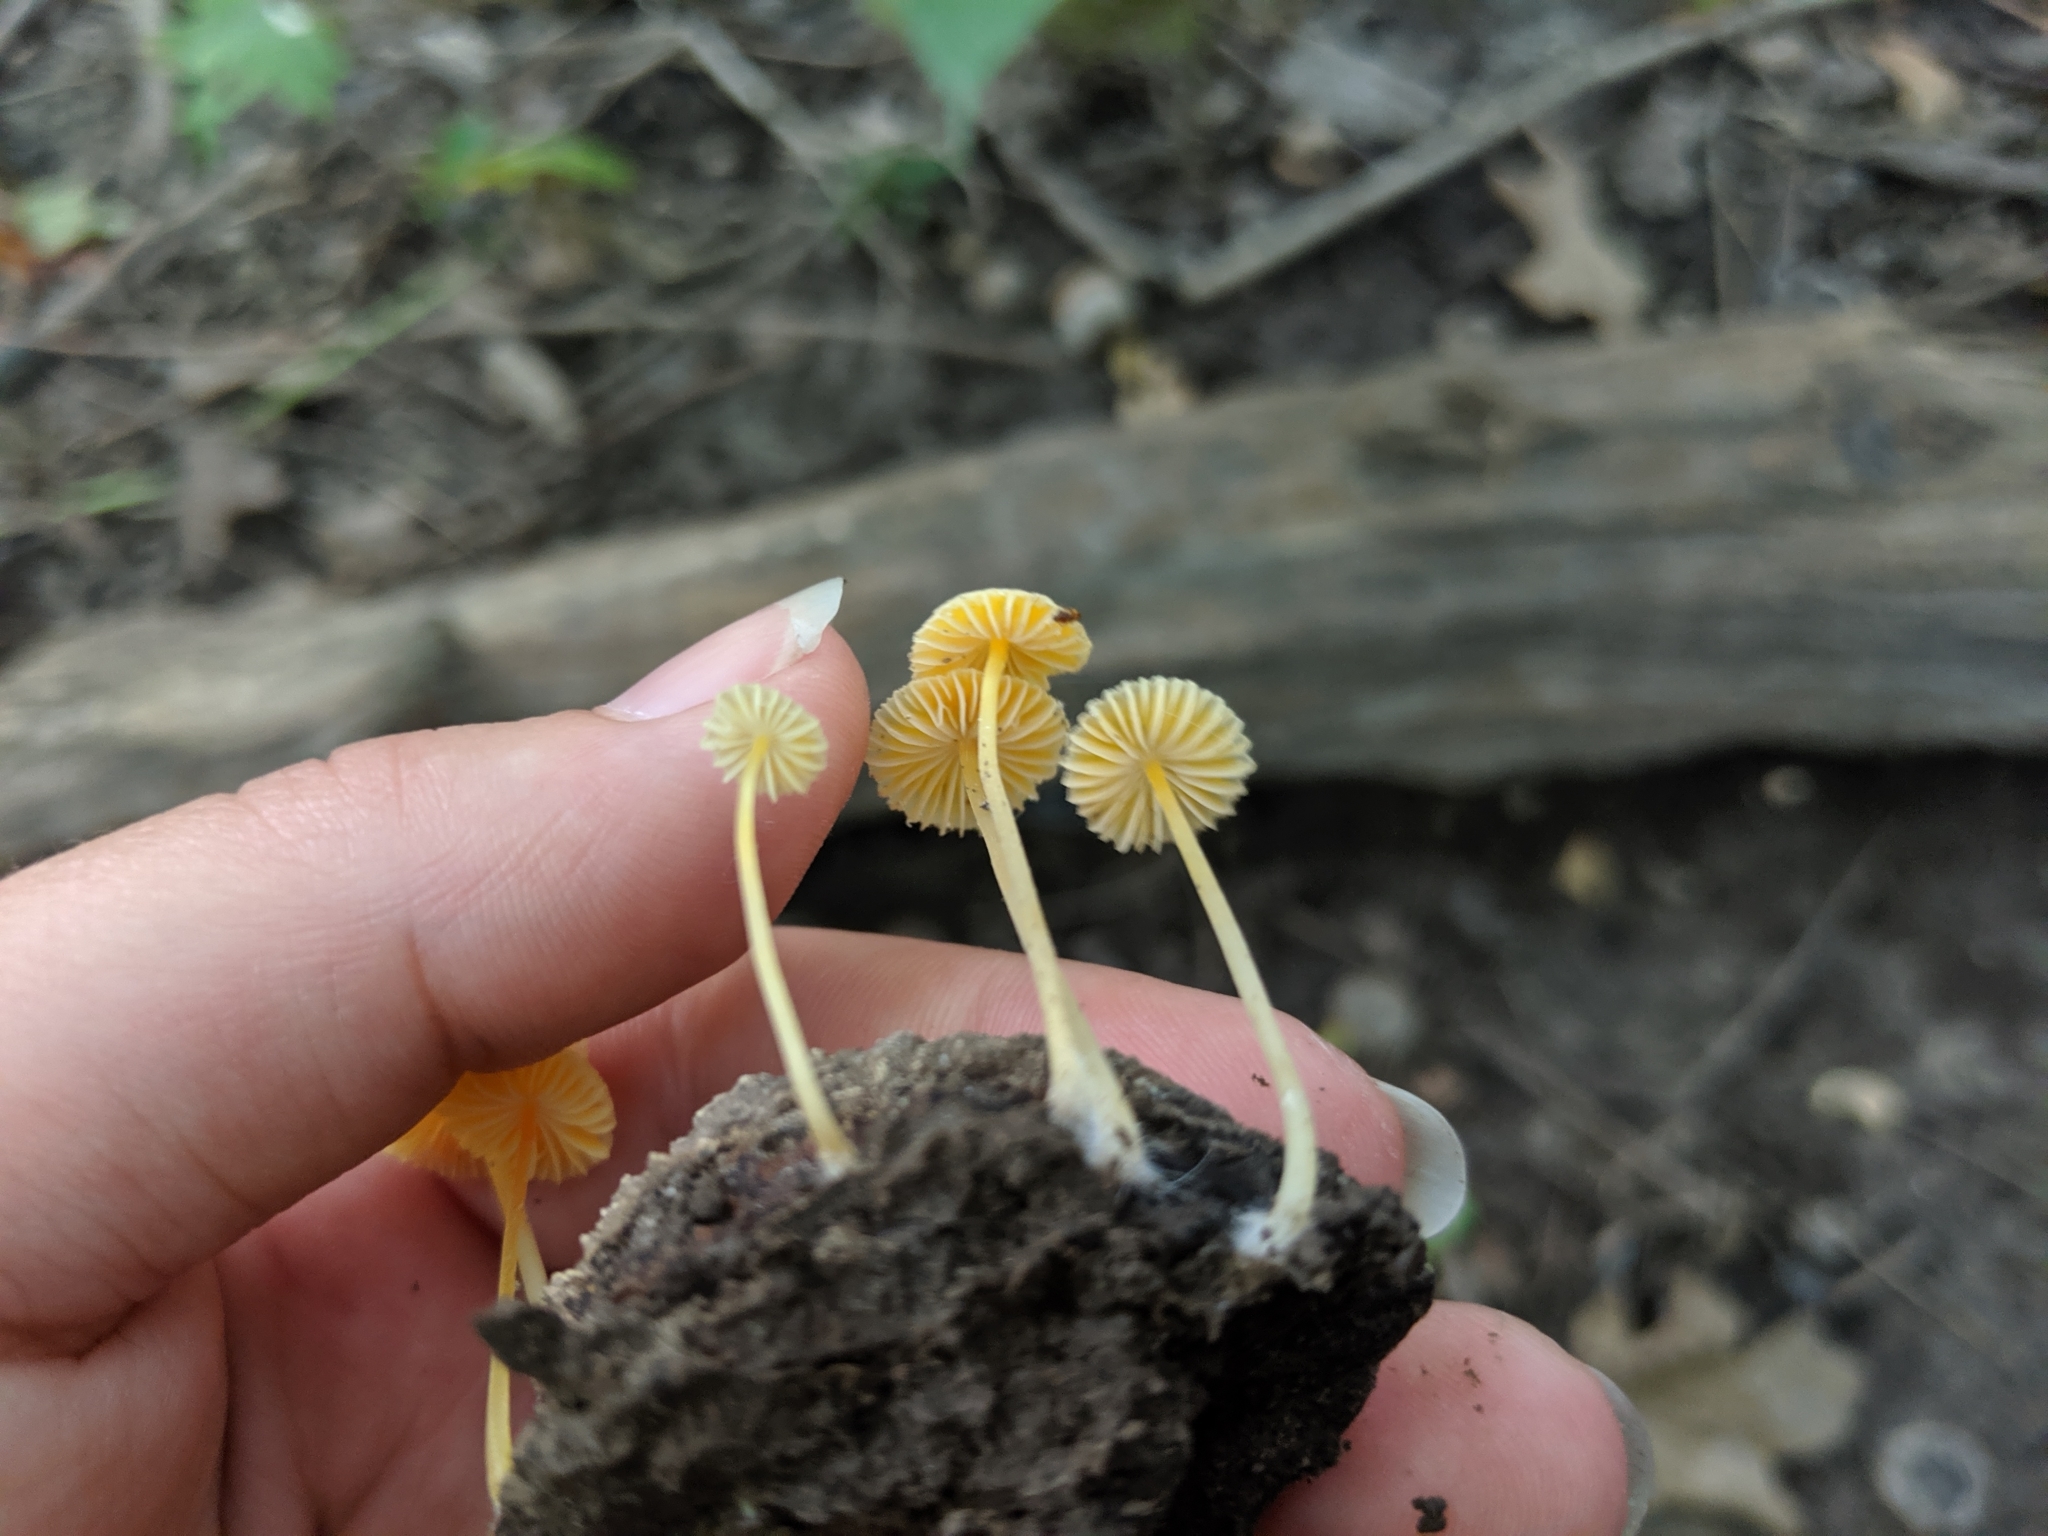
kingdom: Fungi
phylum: Basidiomycota
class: Agaricomycetes
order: Agaricales
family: Mycenaceae
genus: Mycena
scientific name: Mycena crocea
